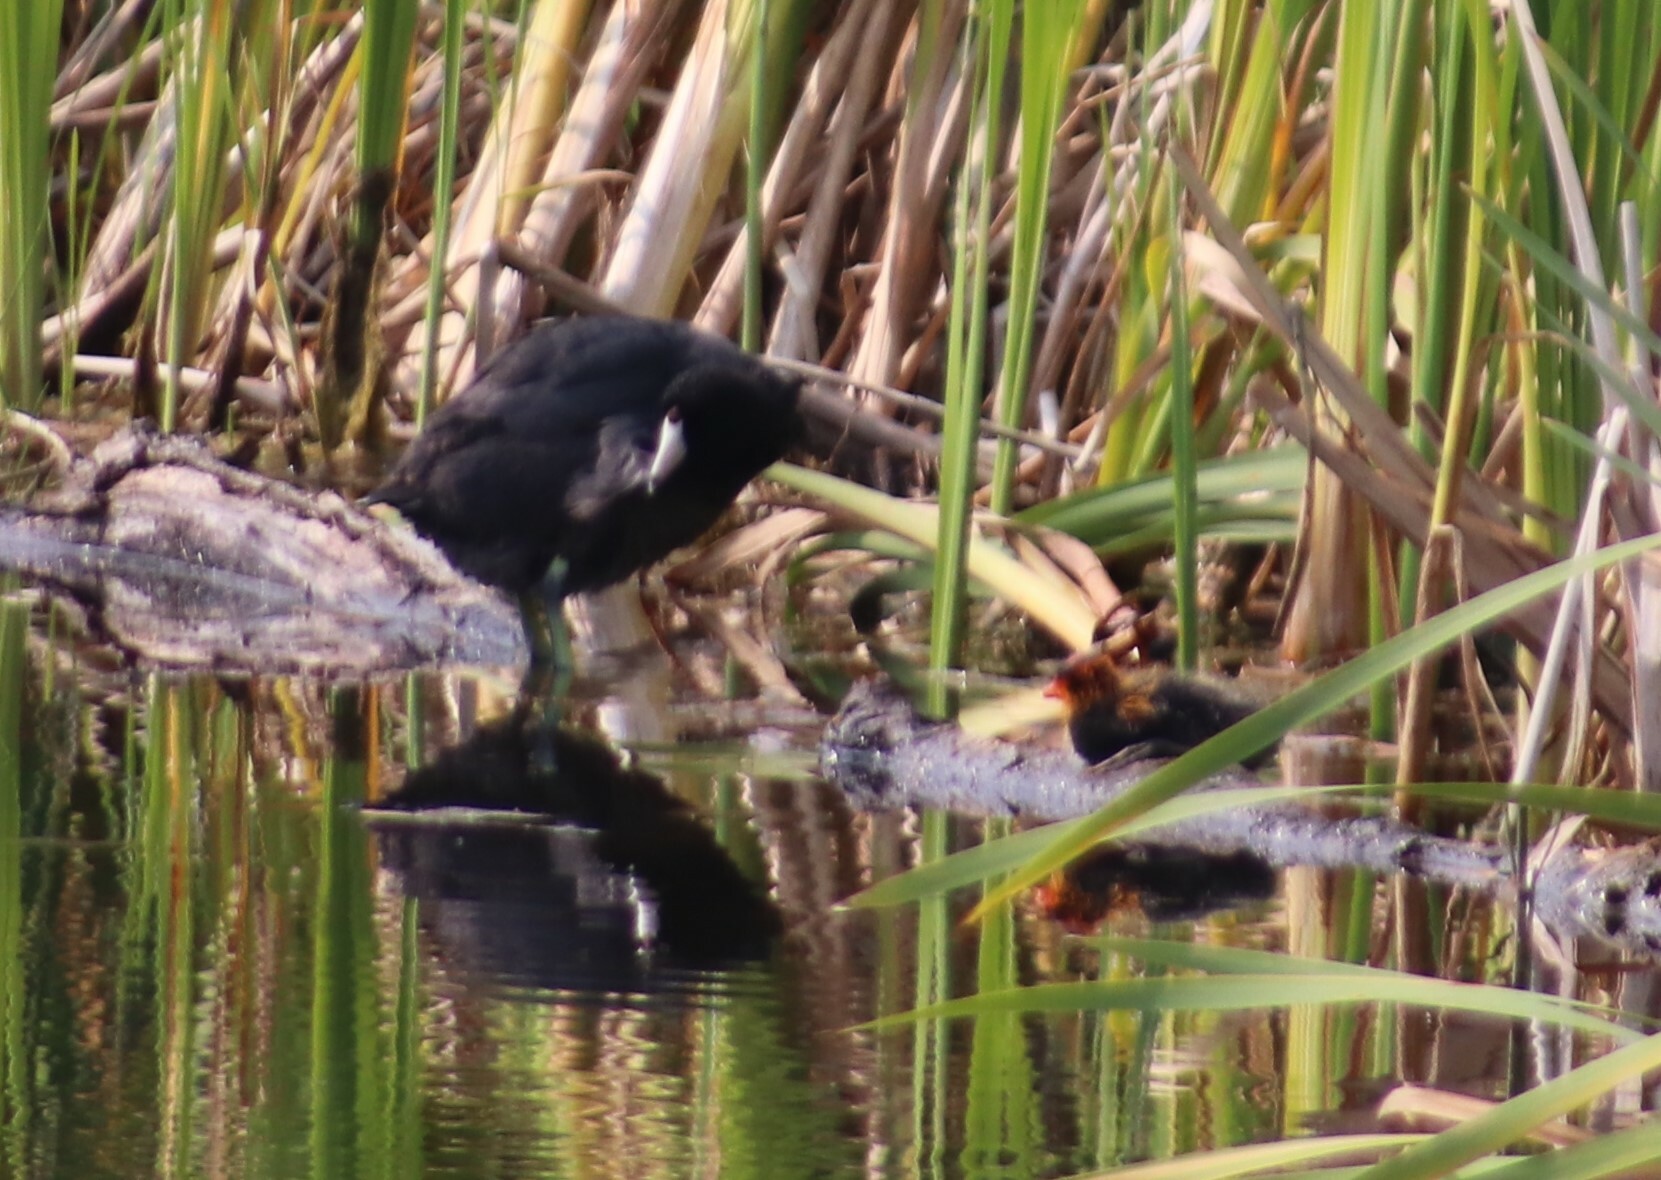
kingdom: Animalia
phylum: Chordata
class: Aves
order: Gruiformes
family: Rallidae
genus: Fulica
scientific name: Fulica americana
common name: American coot
